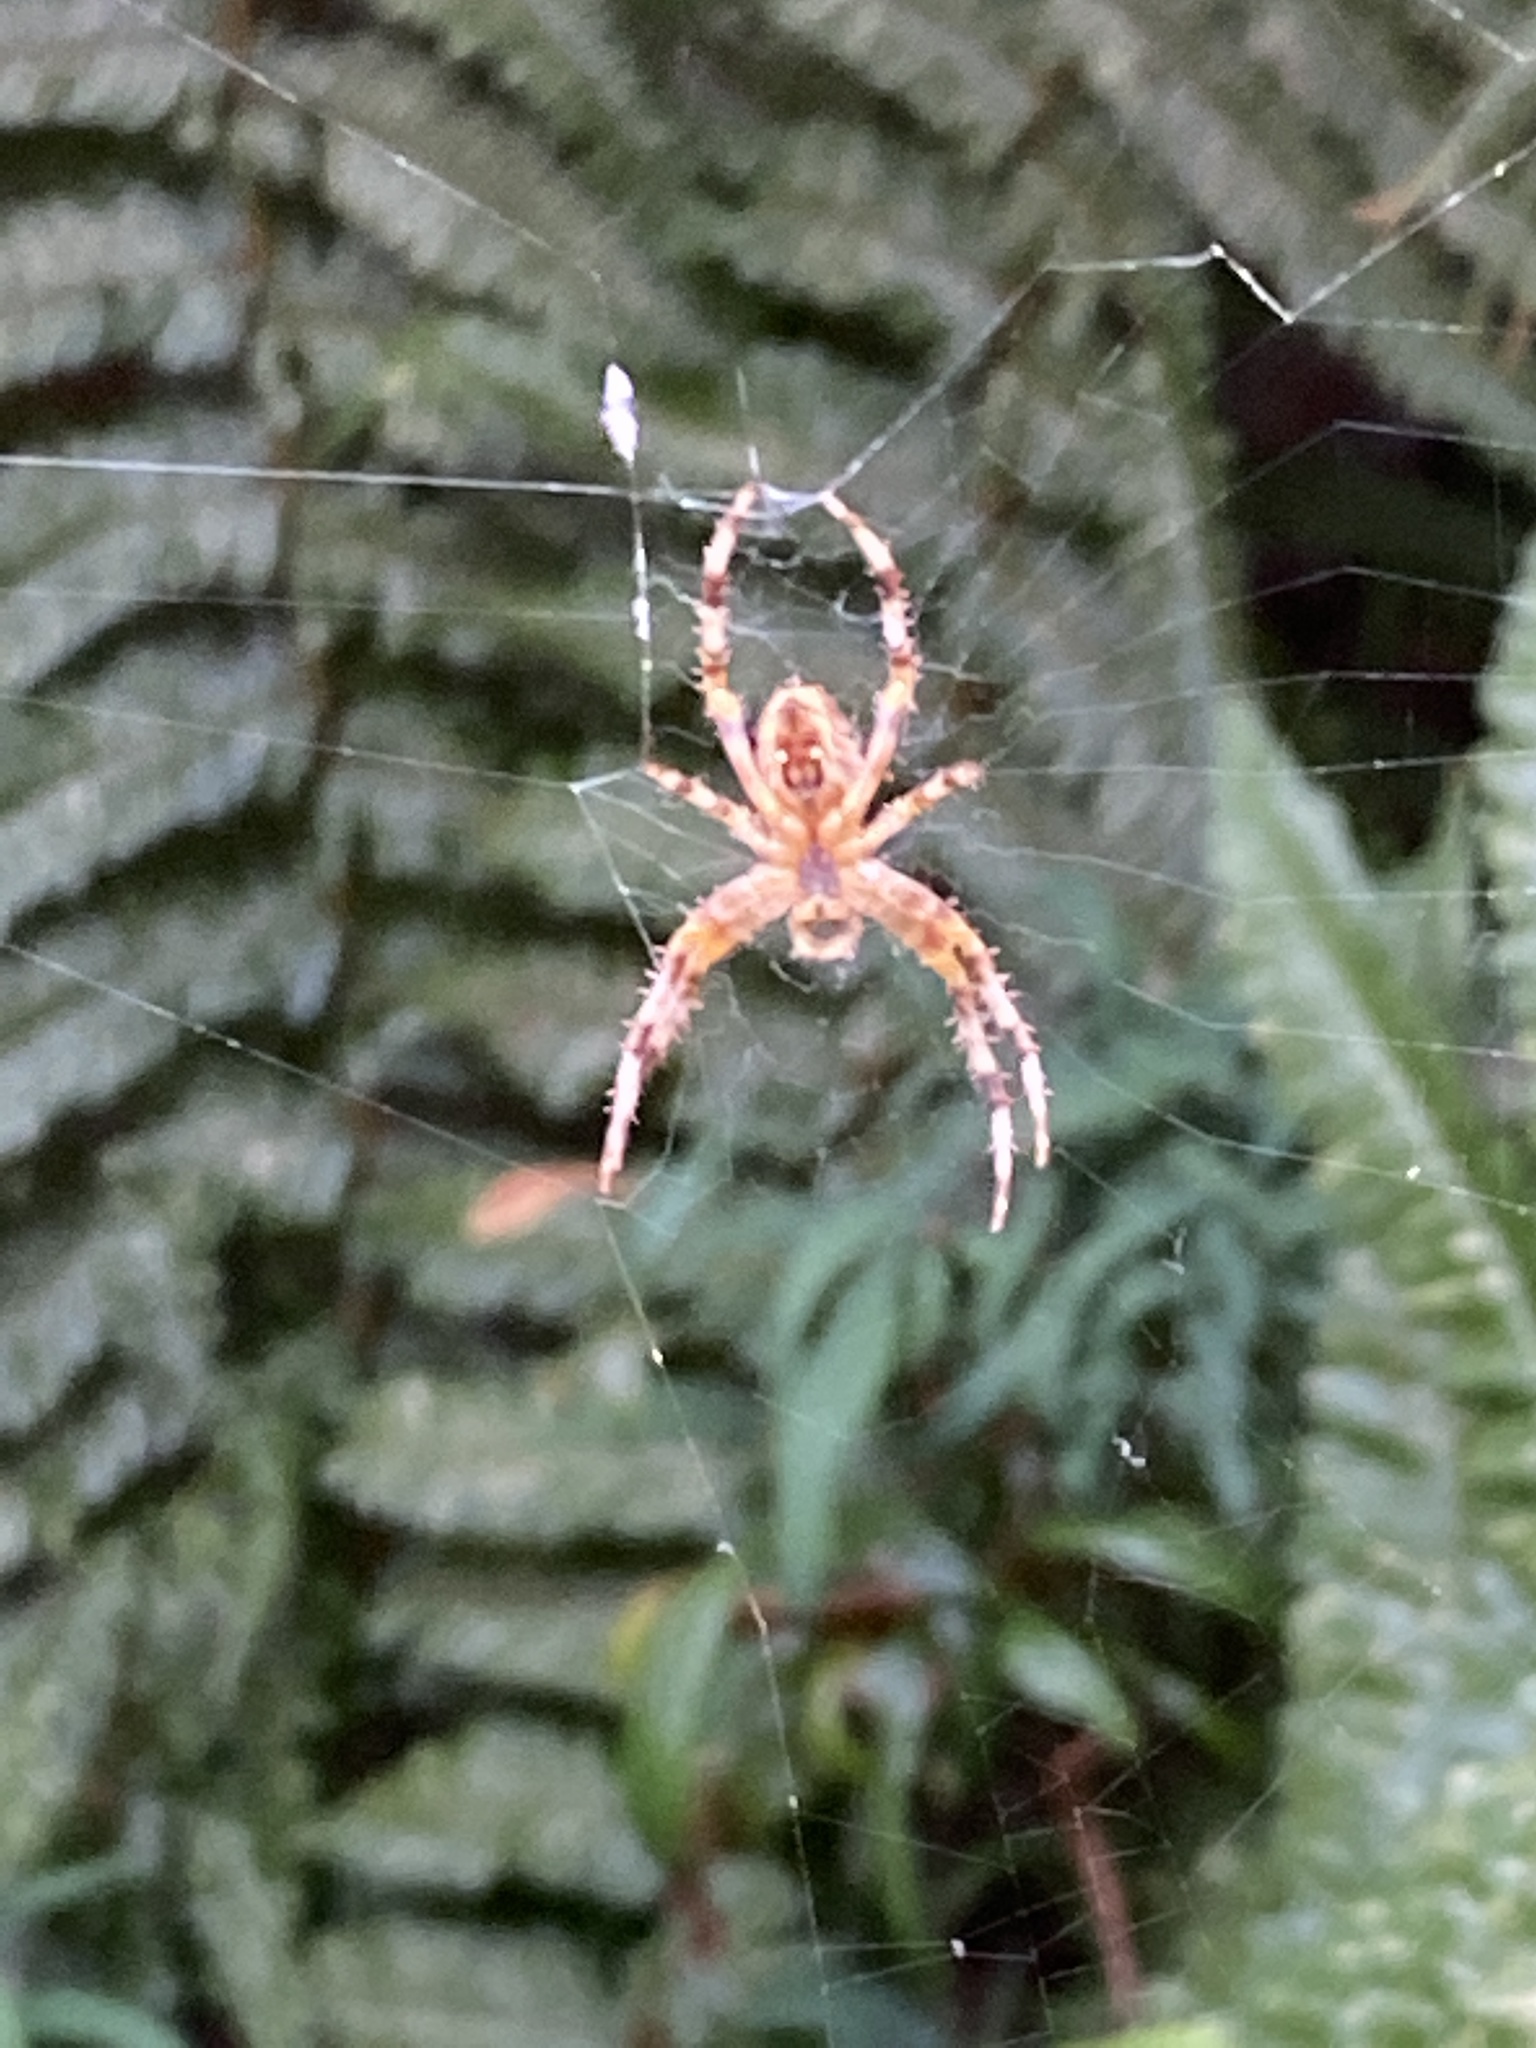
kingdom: Animalia
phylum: Arthropoda
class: Arachnida
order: Araneae
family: Araneidae
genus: Araneus
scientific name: Araneus diadematus
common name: Cross orbweaver
